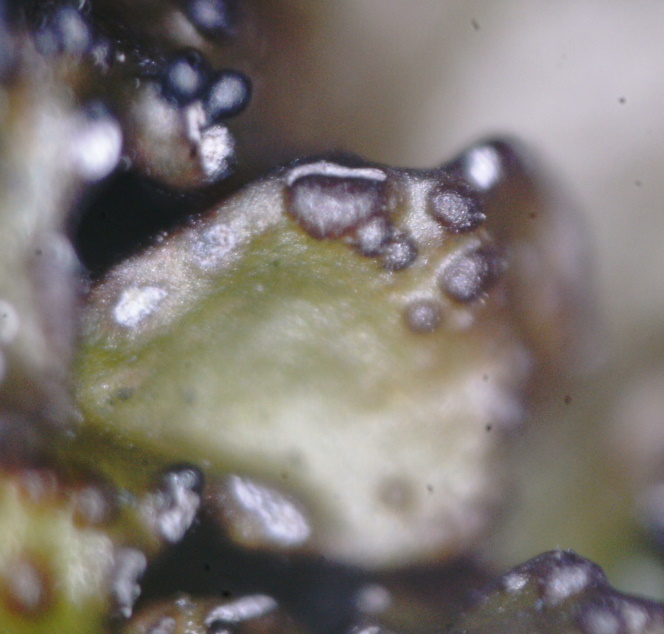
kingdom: Fungi
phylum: Ascomycota
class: Lecanoromycetes
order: Lecanorales
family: Parmeliaceae
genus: Melanelia
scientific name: Melanelia hepatizon
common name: Rimmed camouflage lichen
